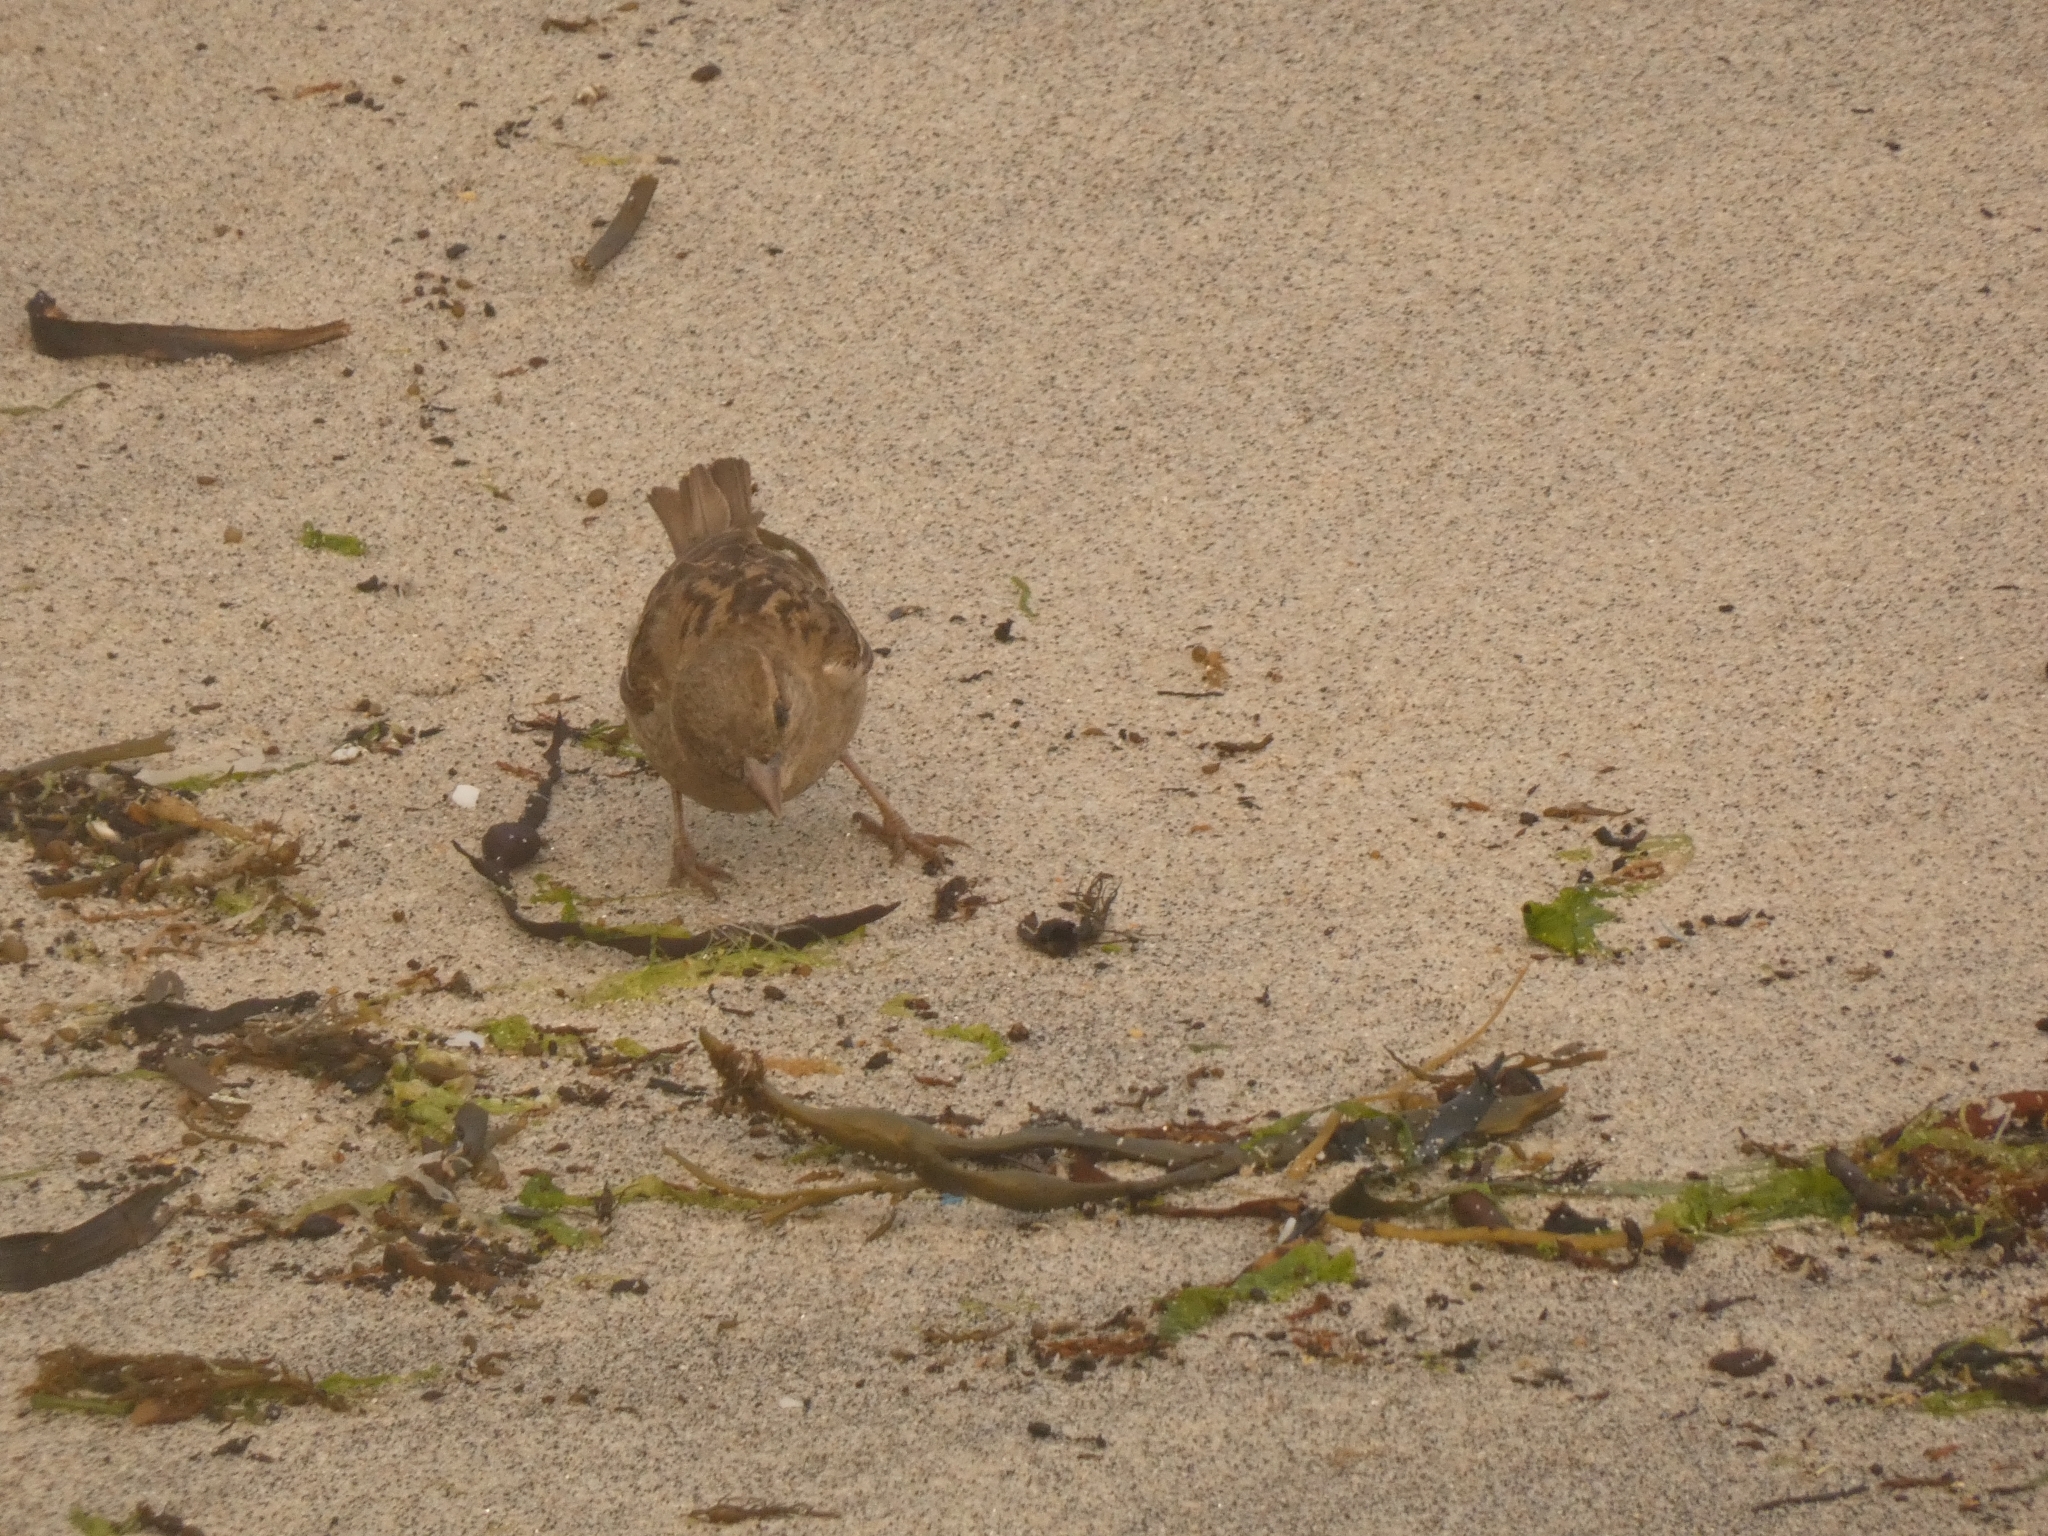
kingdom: Animalia
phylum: Chordata
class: Aves
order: Passeriformes
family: Passeridae
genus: Passer
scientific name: Passer domesticus
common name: House sparrow
